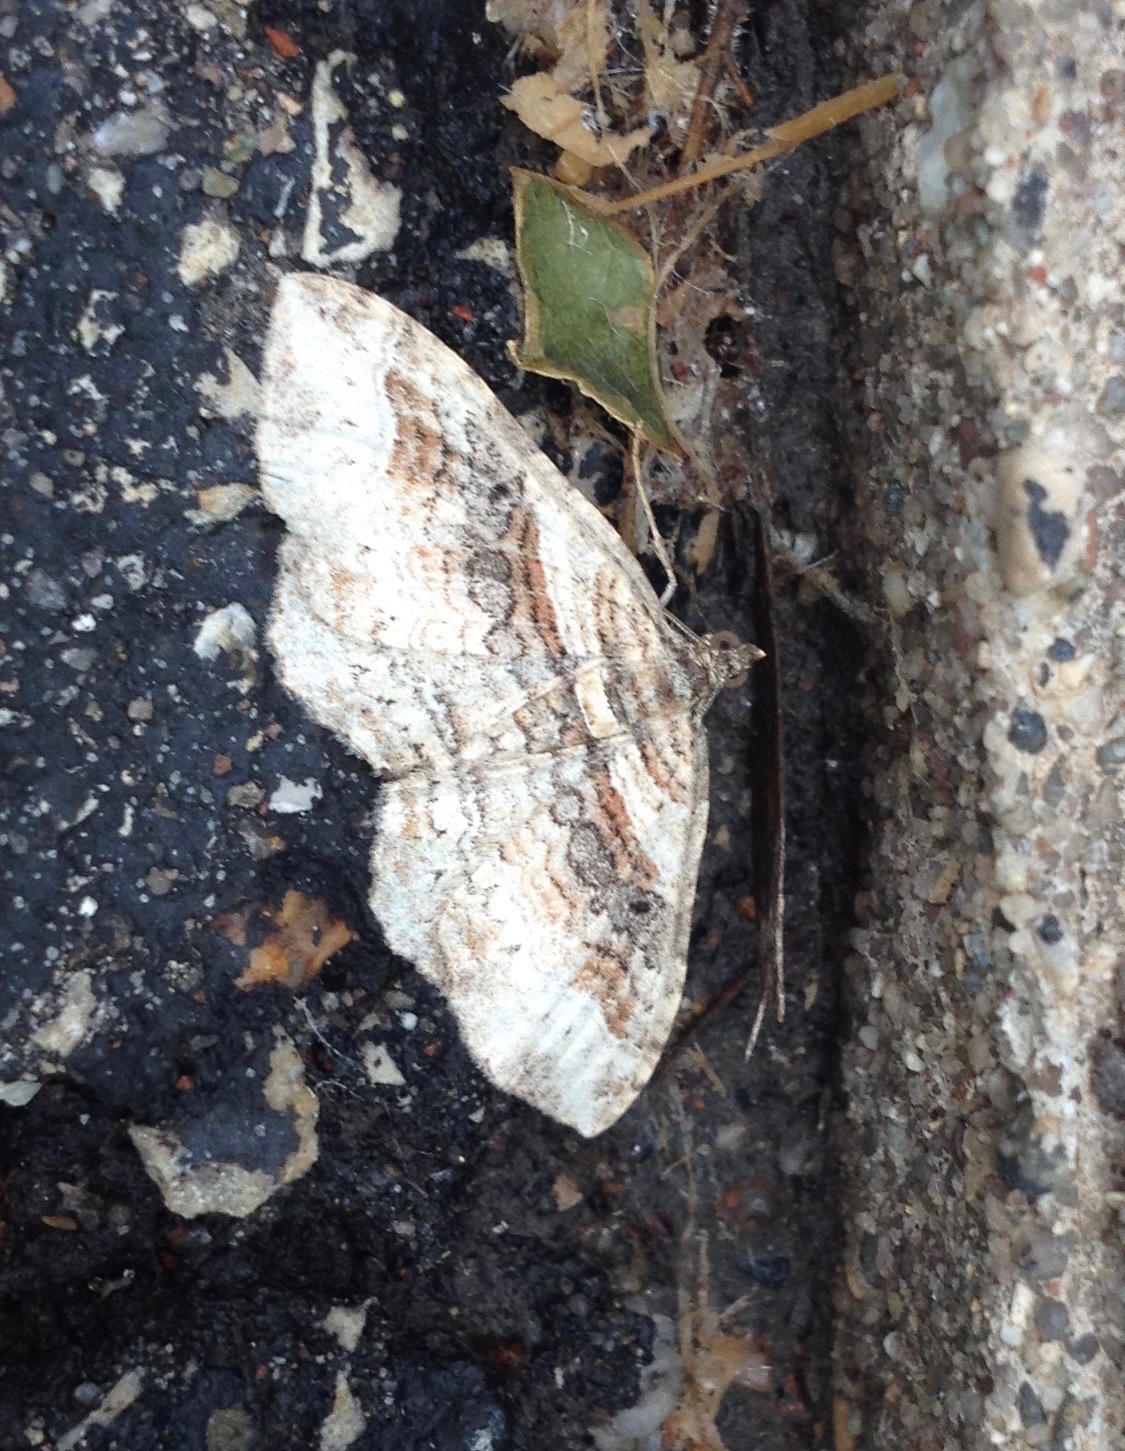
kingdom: Animalia
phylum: Arthropoda
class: Insecta
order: Lepidoptera
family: Geometridae
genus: Costaconvexa
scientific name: Costaconvexa centrostrigaria
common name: Bent-line carpet
